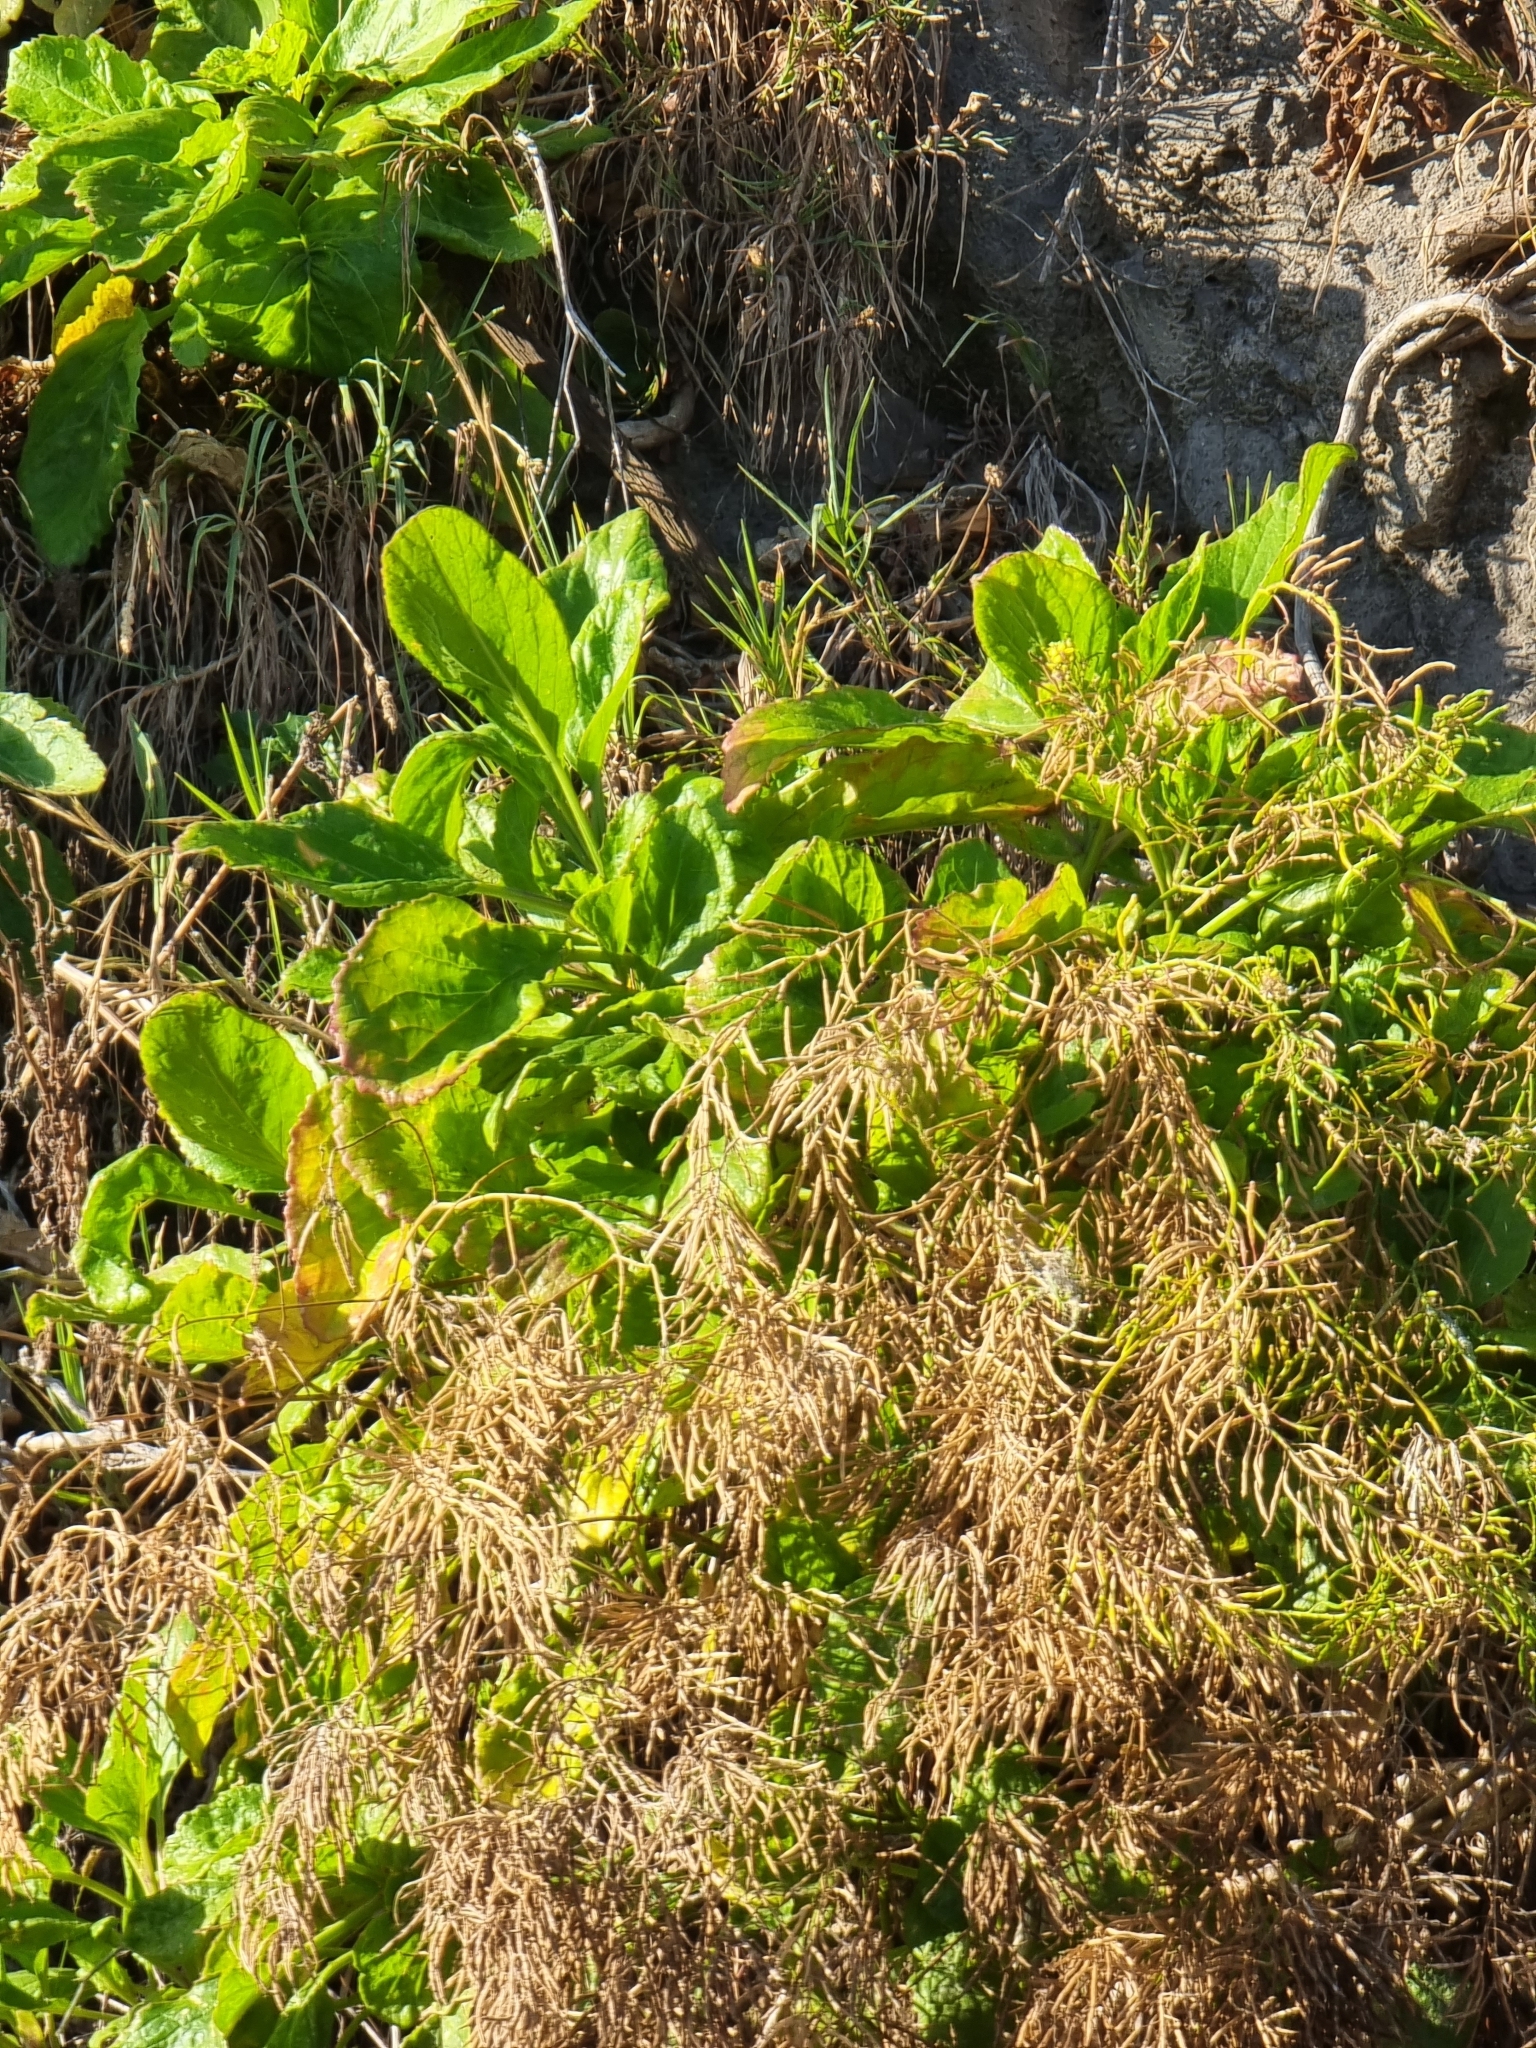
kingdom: Plantae
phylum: Tracheophyta
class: Magnoliopsida
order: Brassicales
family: Brassicaceae
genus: Sinapidendron
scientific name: Sinapidendron rupestre
